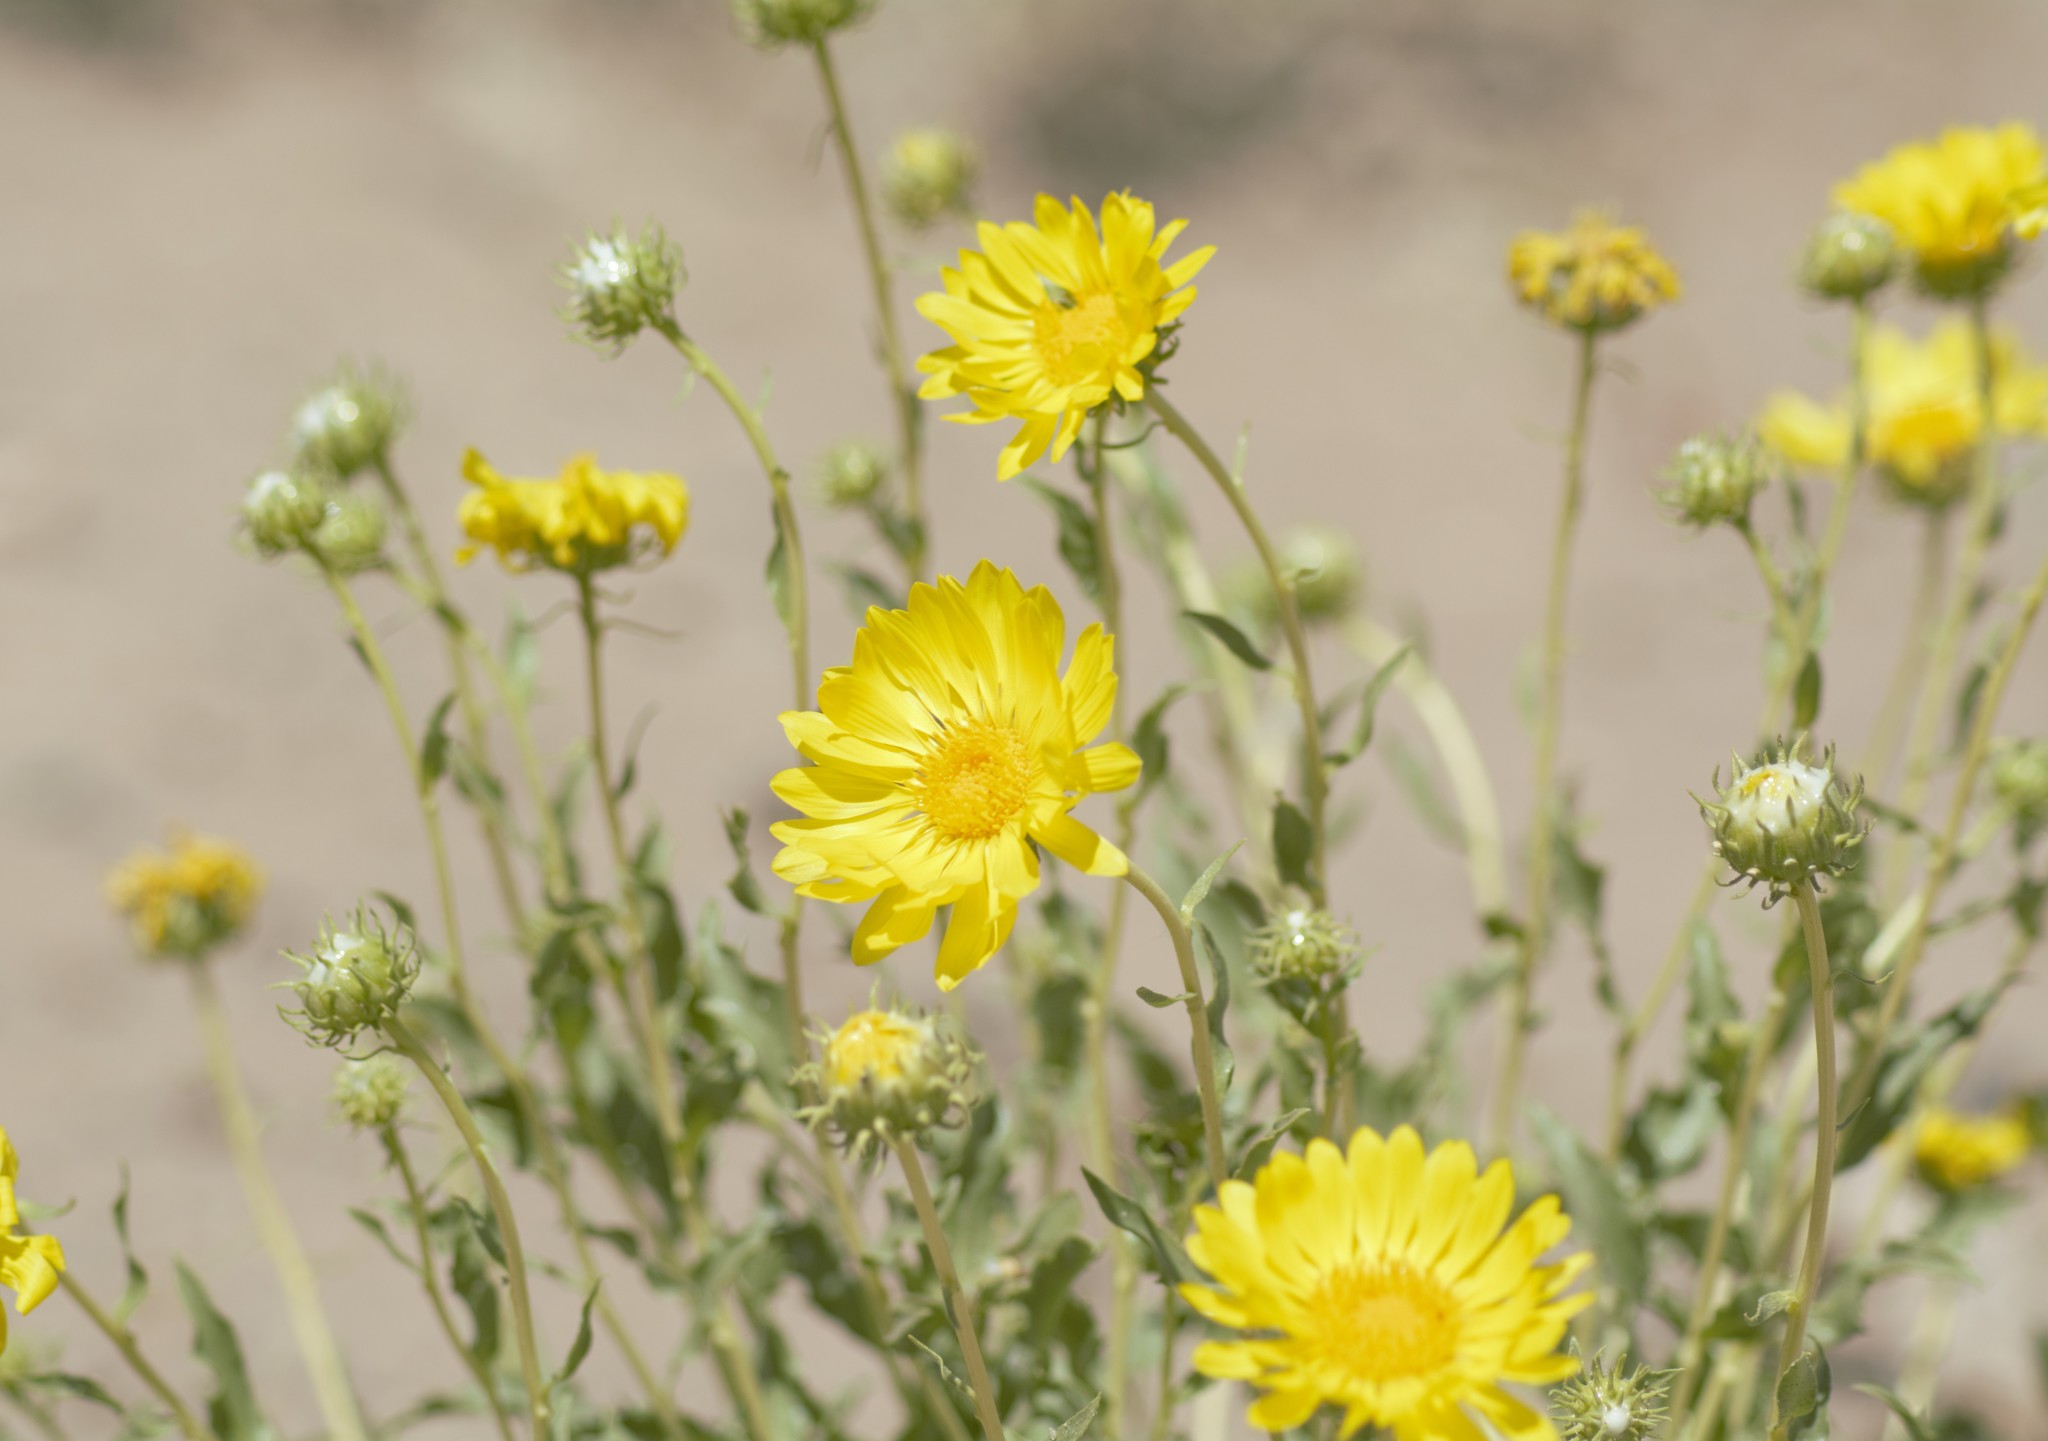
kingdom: Plantae
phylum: Tracheophyta
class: Magnoliopsida
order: Asterales
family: Asteraceae
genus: Grindelia
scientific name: Grindelia chiloensis
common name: Shrubby gumweed
